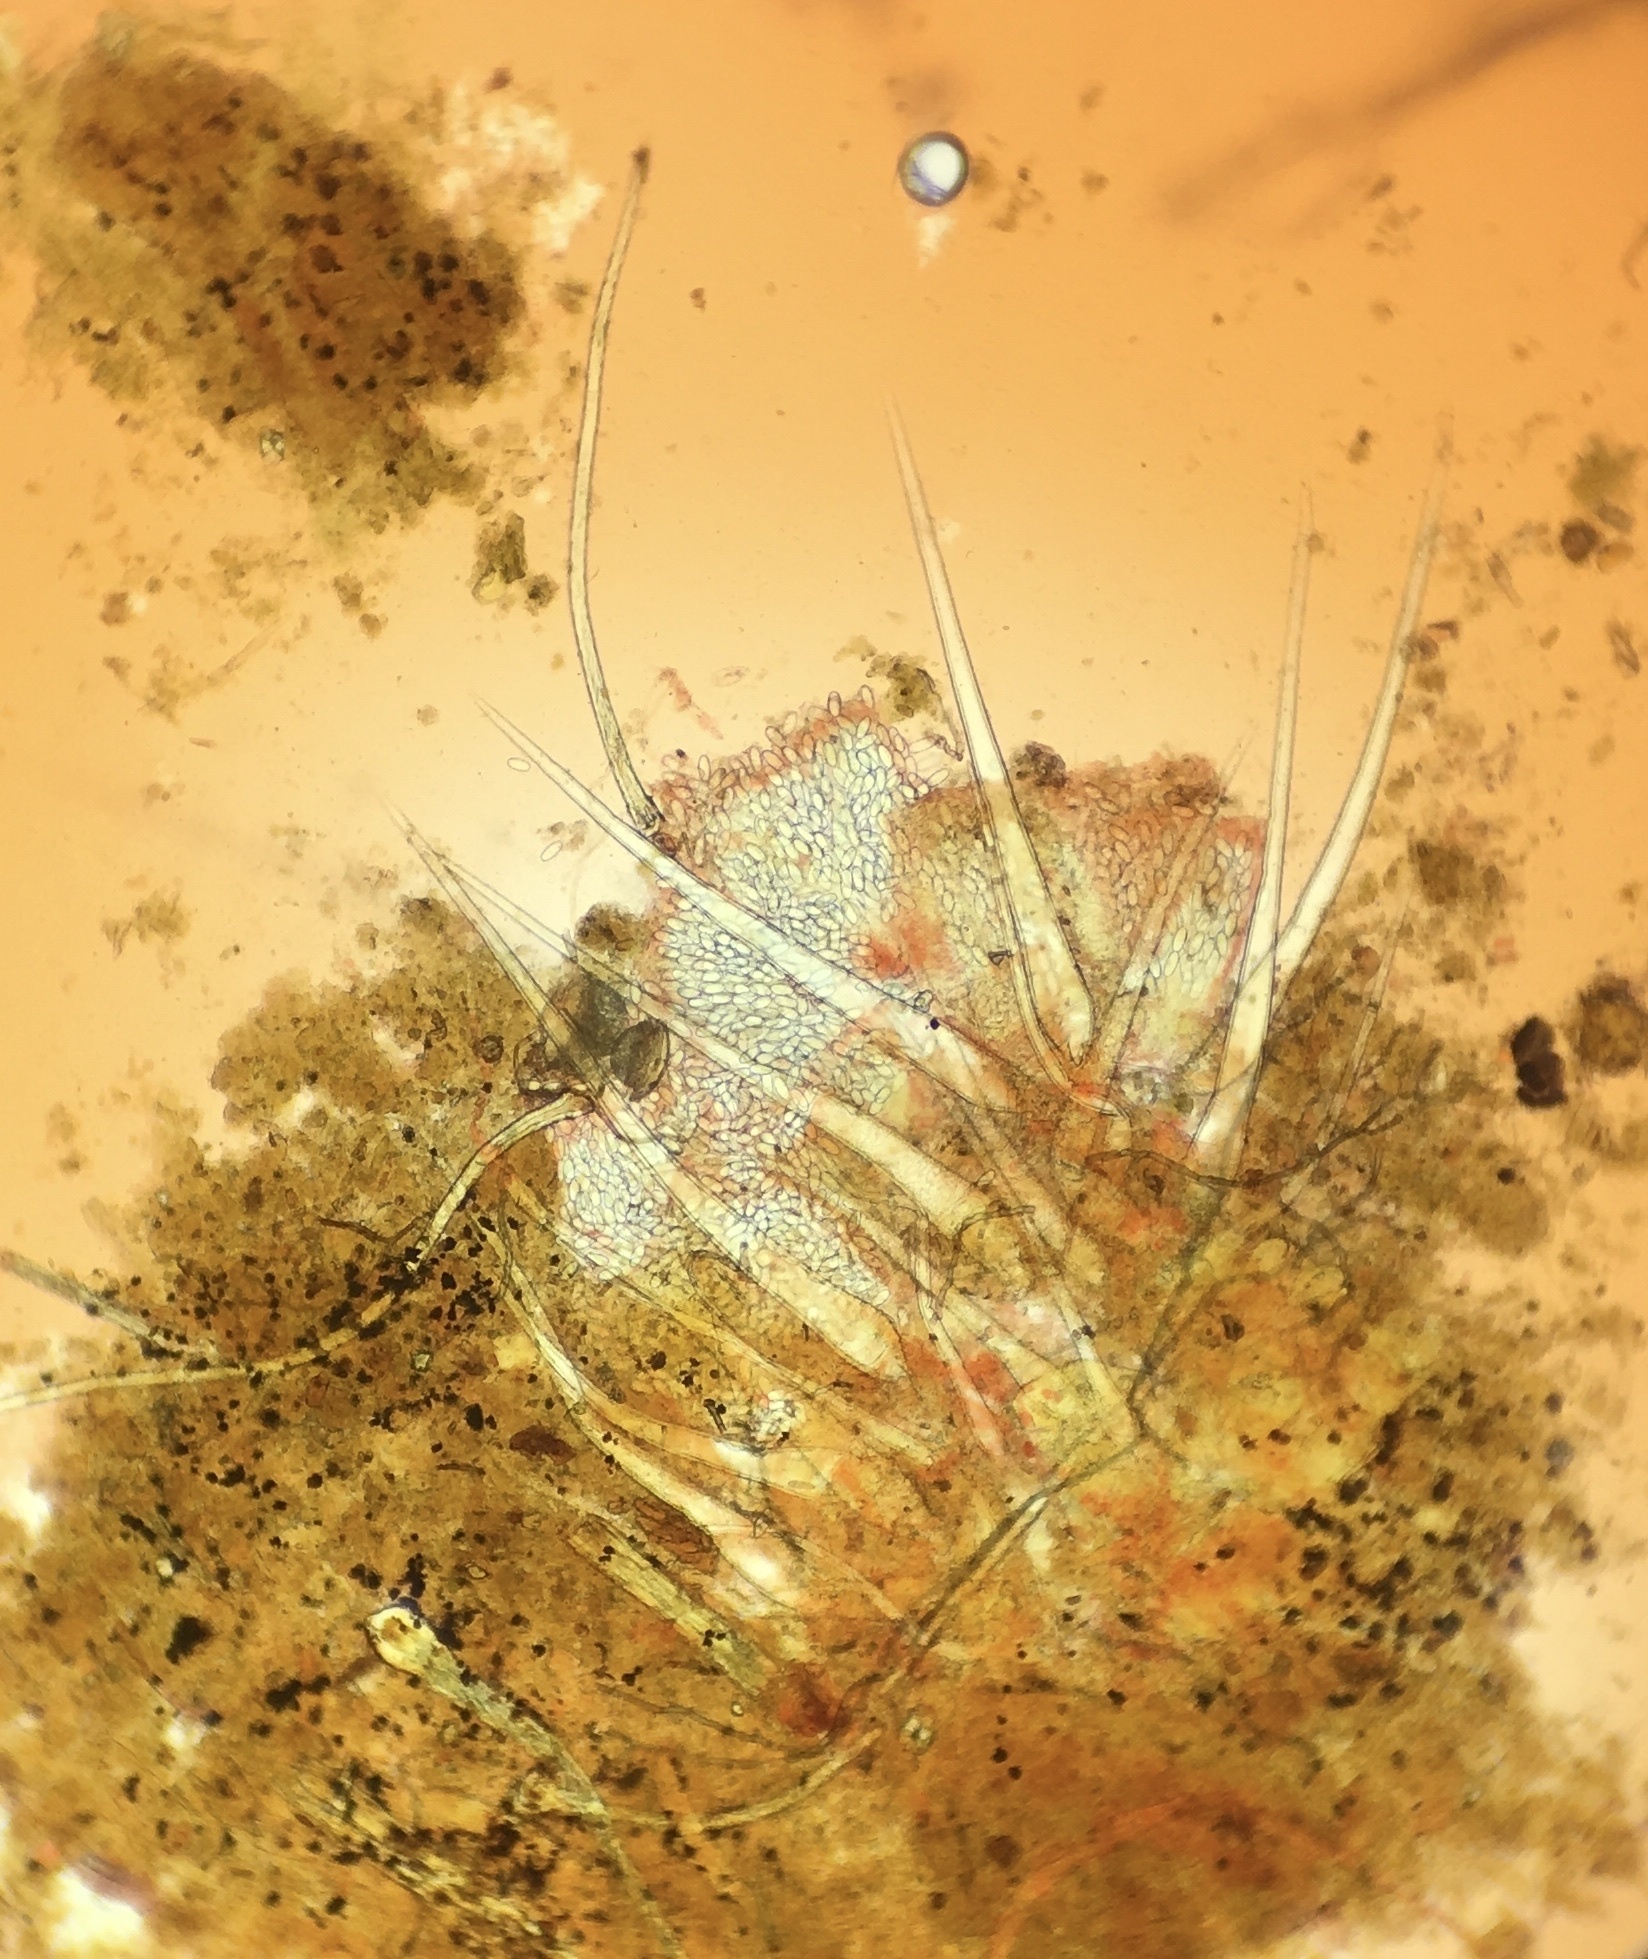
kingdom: Fungi
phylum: Ascomycota
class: Pezizomycetes
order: Pezizales
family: Ascobolaceae
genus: Ascobolus
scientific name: Ascobolus ciliatus
